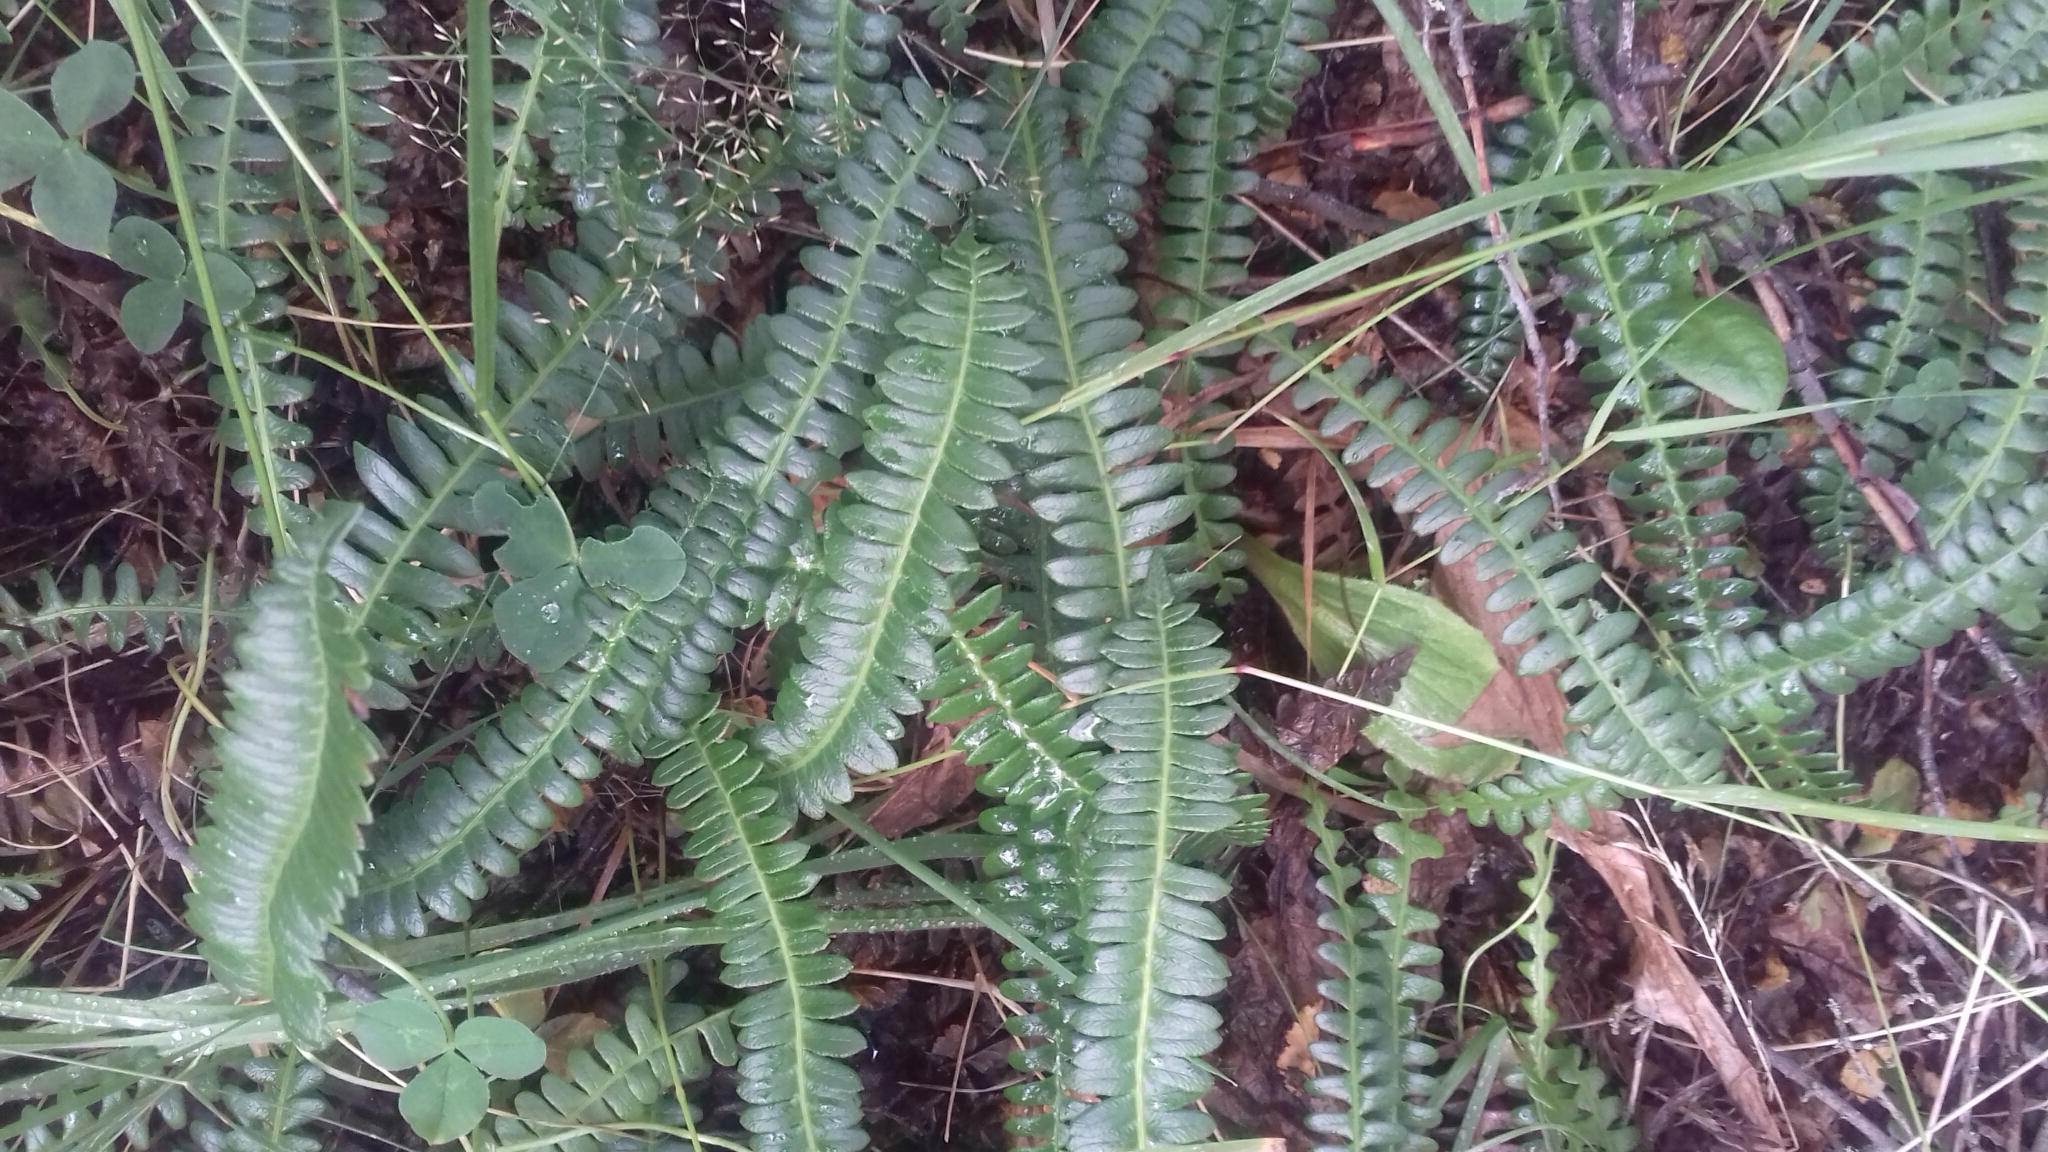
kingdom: Plantae
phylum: Tracheophyta
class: Polypodiopsida
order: Polypodiales
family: Blechnaceae
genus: Austroblechnum
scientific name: Austroblechnum penna-marina
